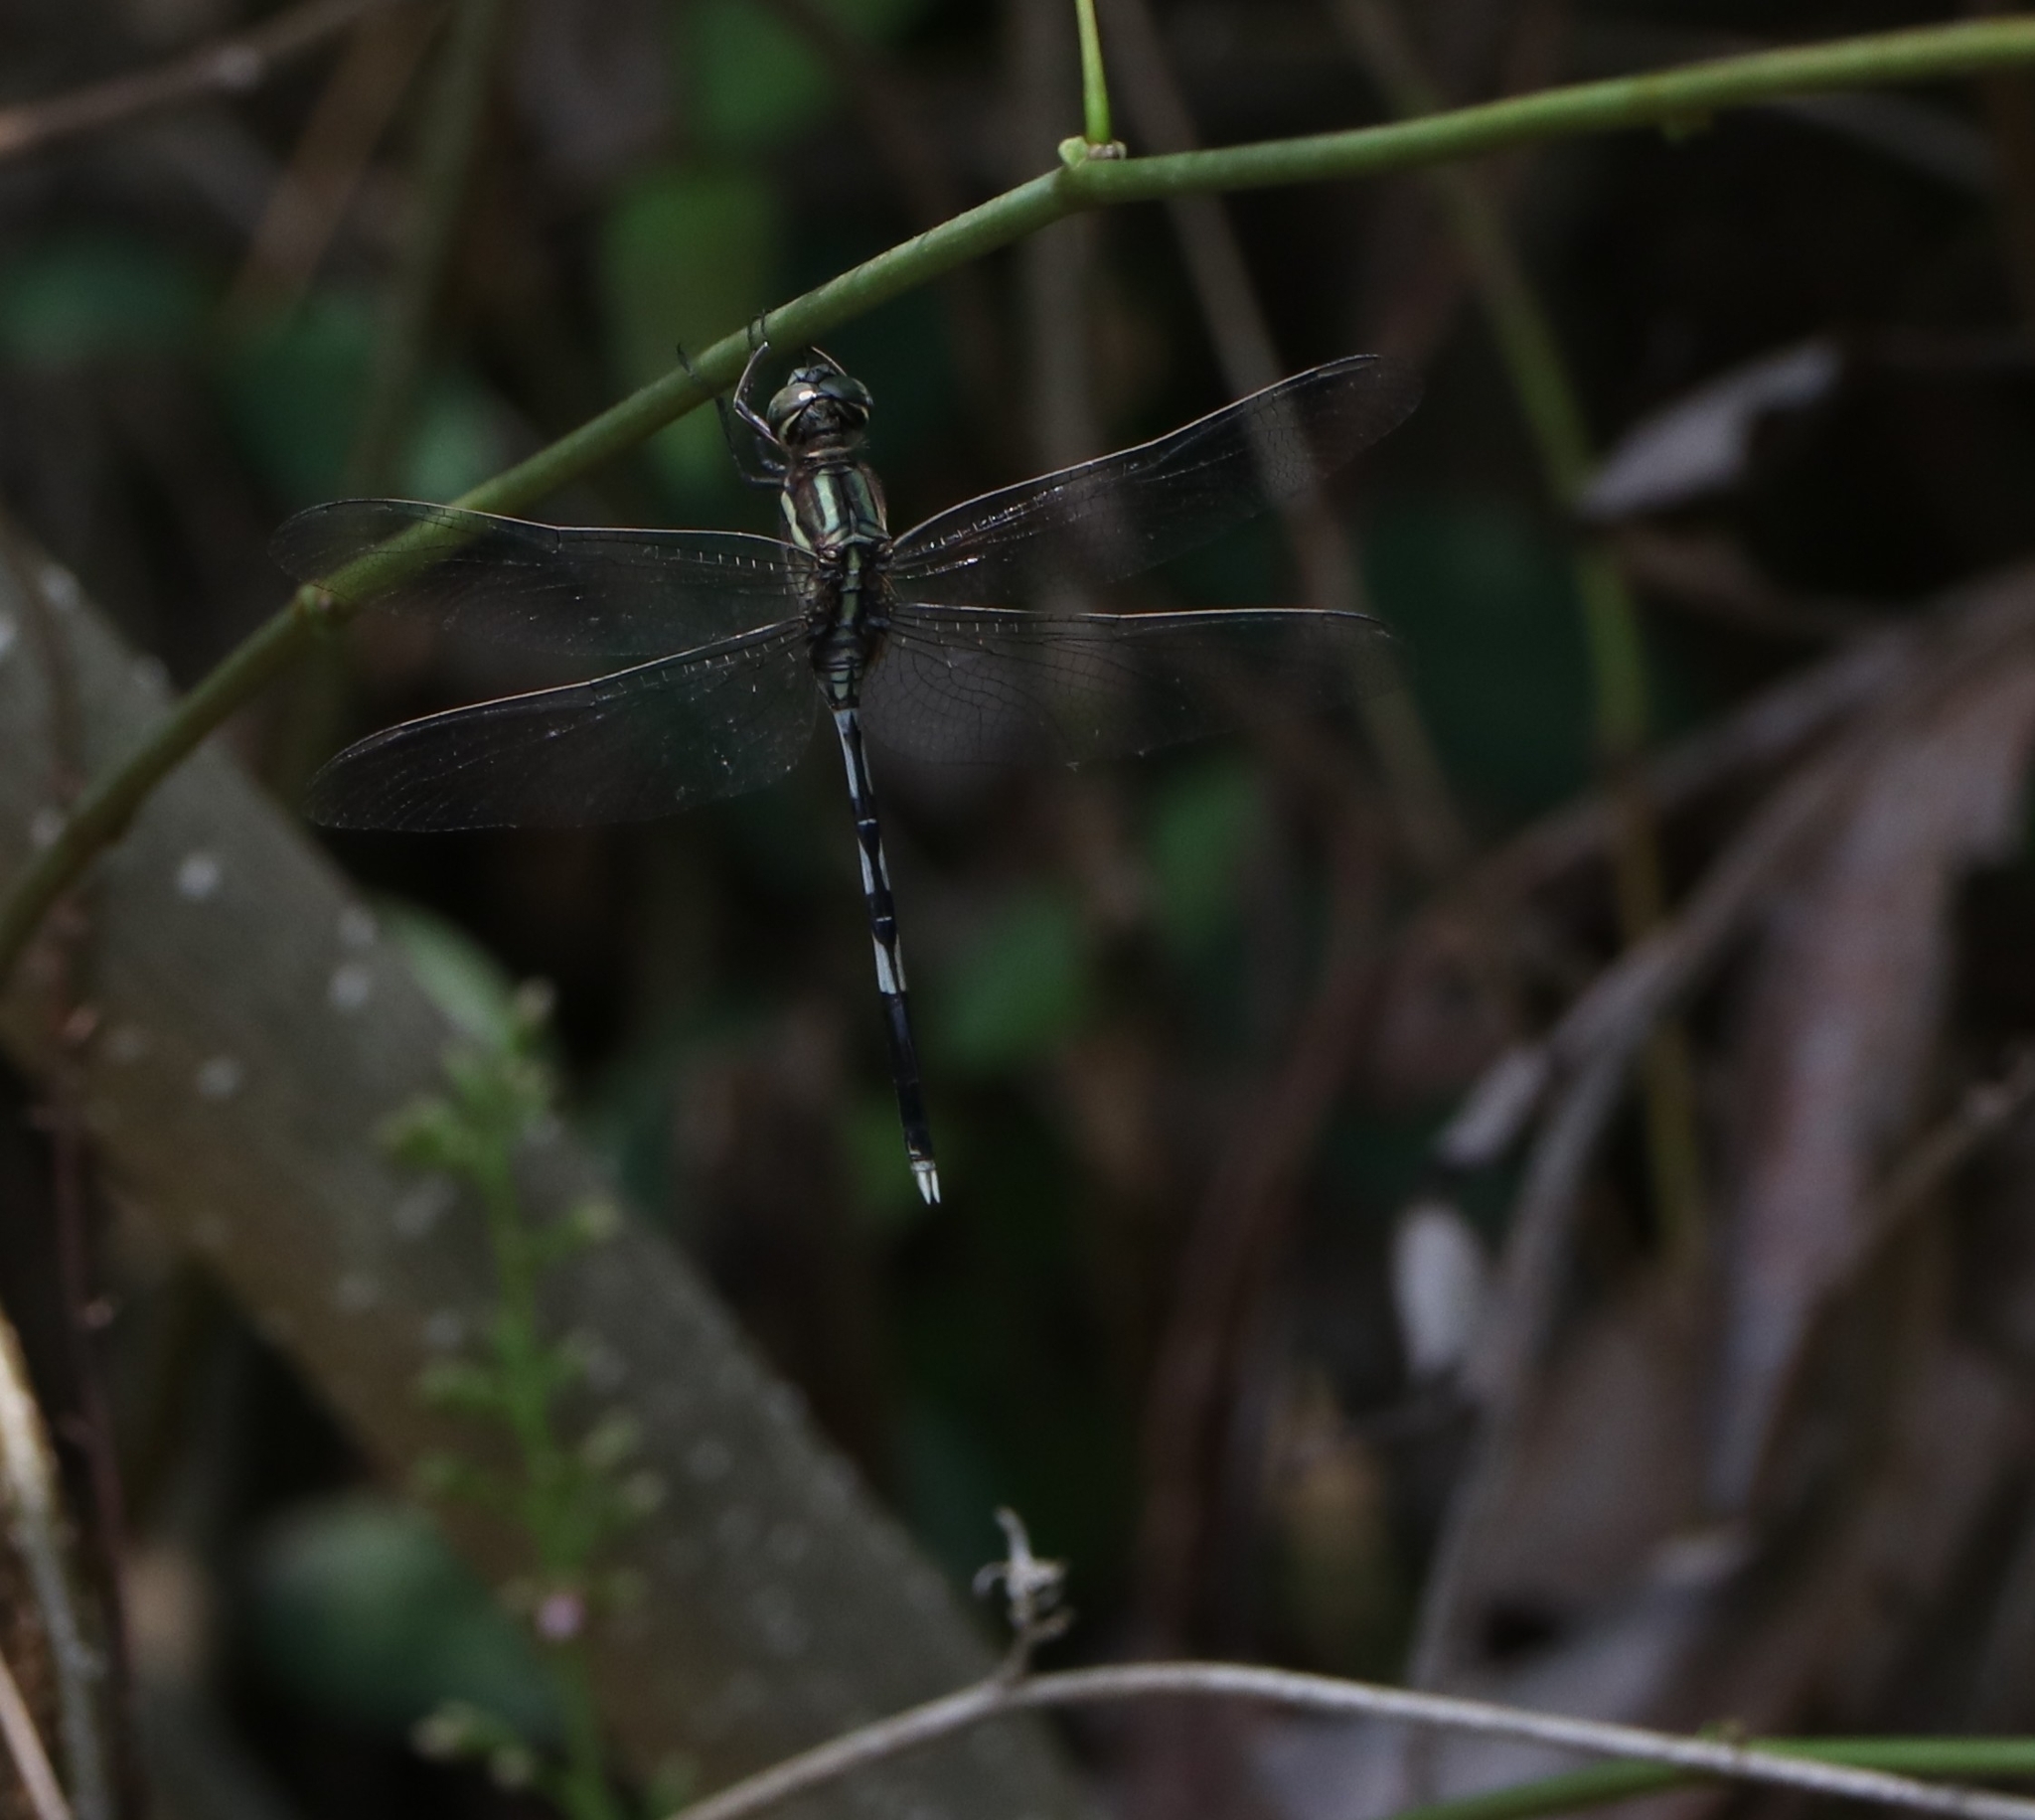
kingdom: Animalia
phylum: Arthropoda
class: Insecta
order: Odonata
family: Libellulidae
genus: Orthetrum
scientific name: Orthetrum sabina
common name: Slender skimmer
